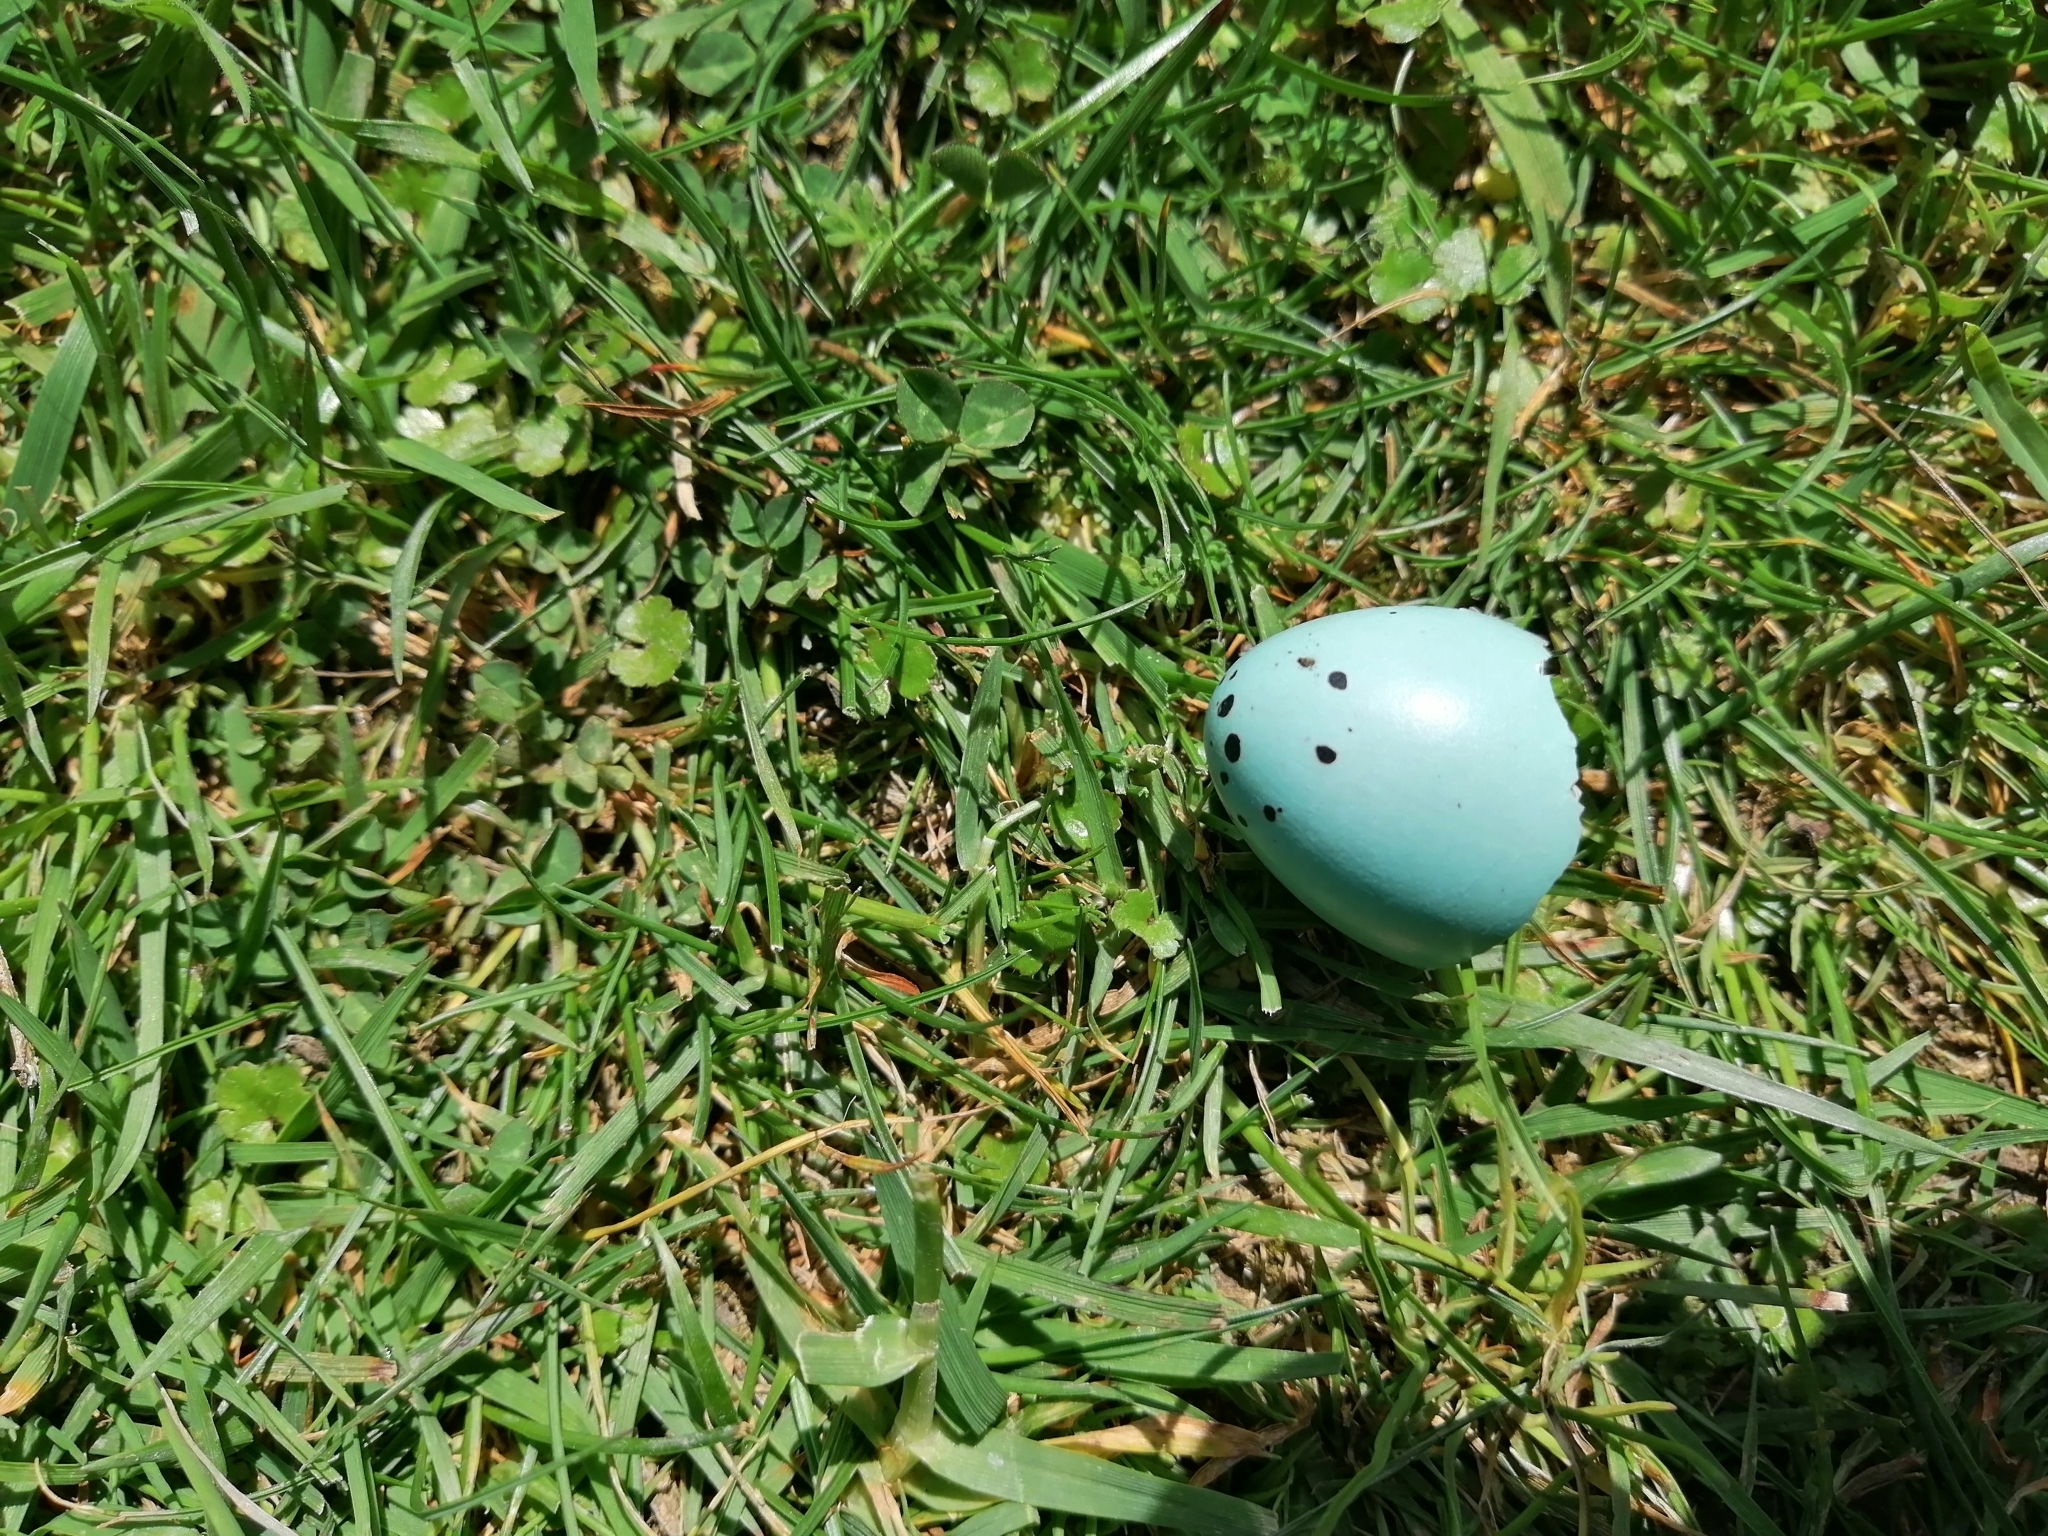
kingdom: Animalia
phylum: Chordata
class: Aves
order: Passeriformes
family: Turdidae
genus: Turdus
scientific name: Turdus philomelos
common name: Song thrush
